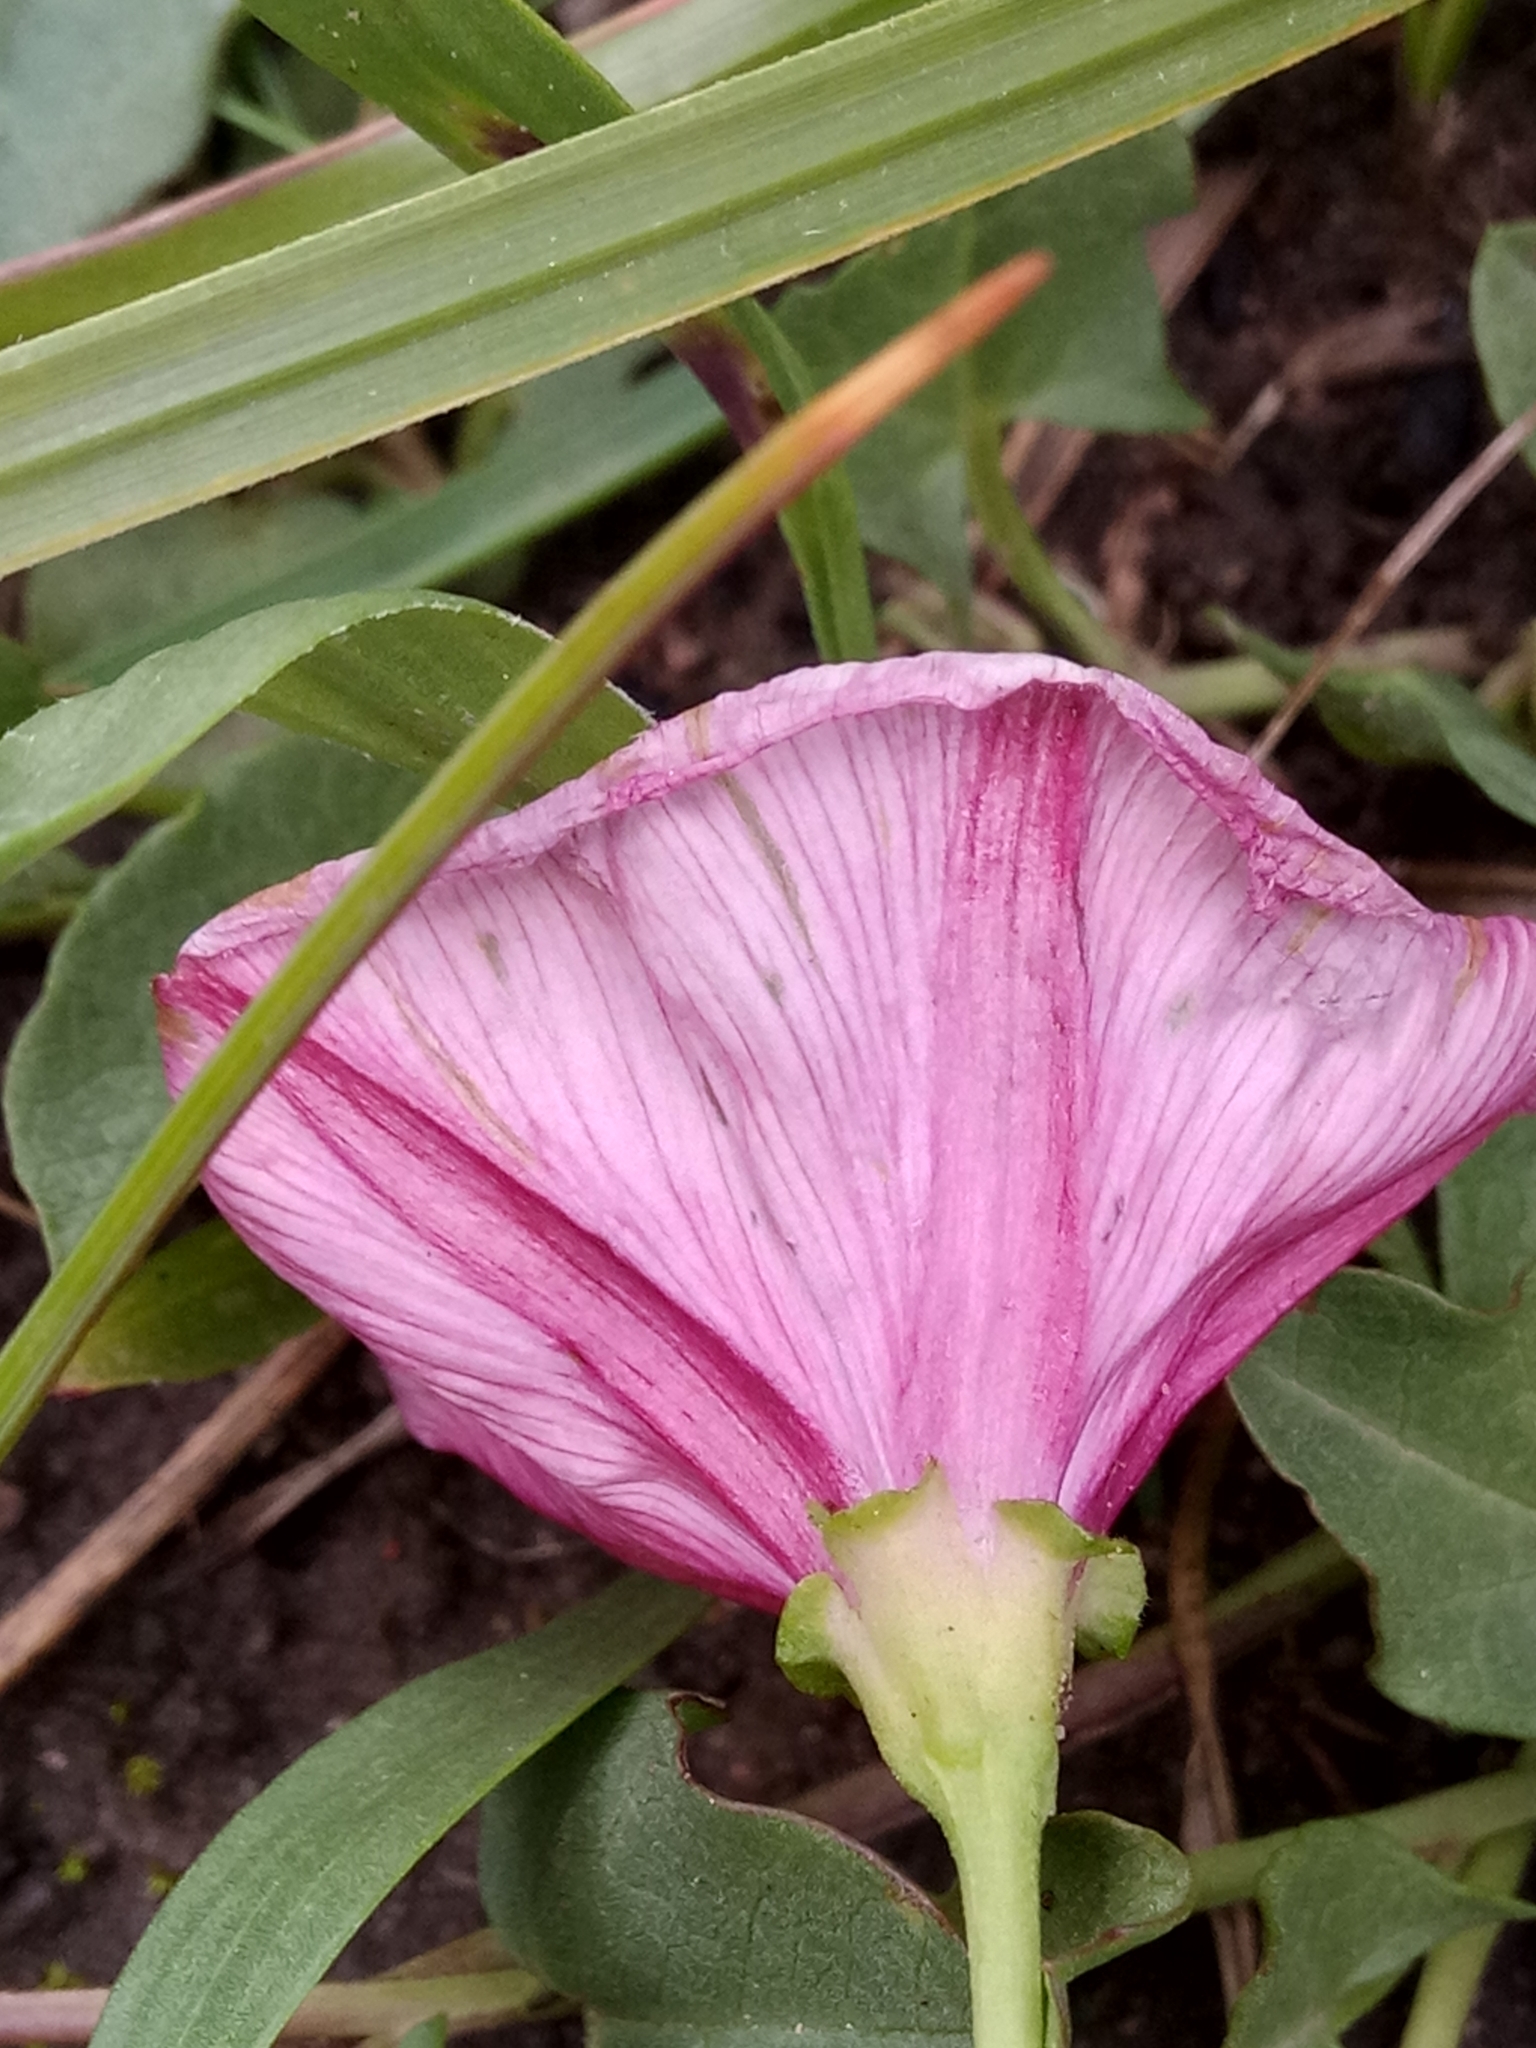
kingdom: Plantae
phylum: Tracheophyta
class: Magnoliopsida
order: Solanales
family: Convolvulaceae
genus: Convolvulus
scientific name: Convolvulus durandoi
